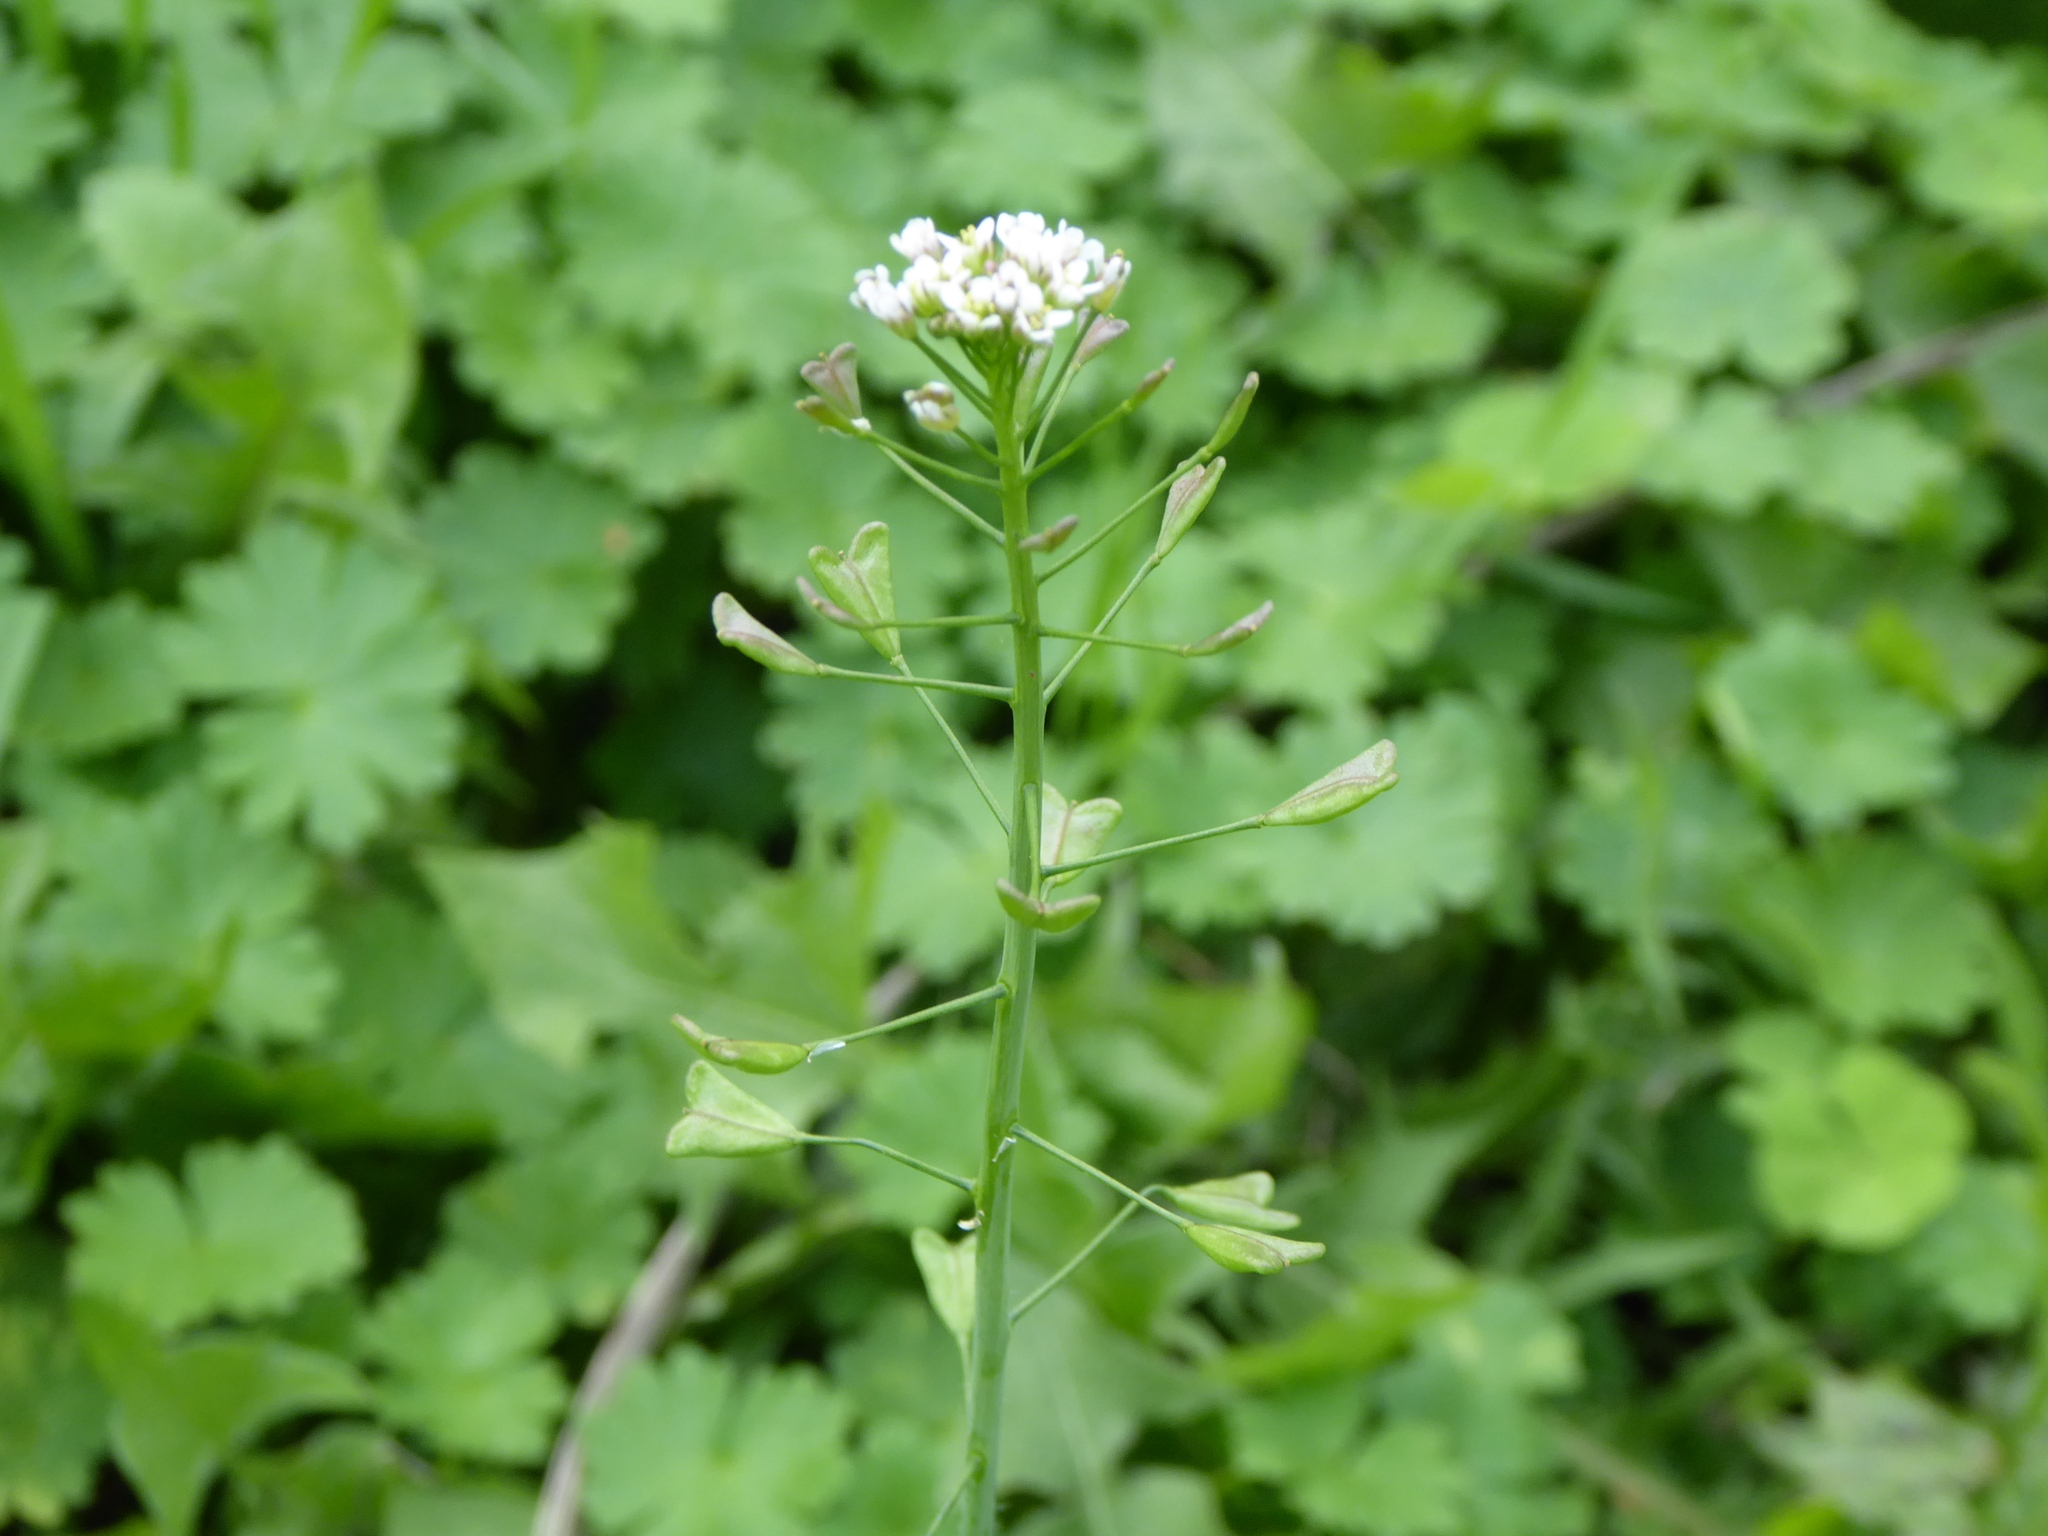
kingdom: Plantae
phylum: Tracheophyta
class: Magnoliopsida
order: Brassicales
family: Brassicaceae
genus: Capsella
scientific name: Capsella bursa-pastoris
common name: Shepherd's purse
